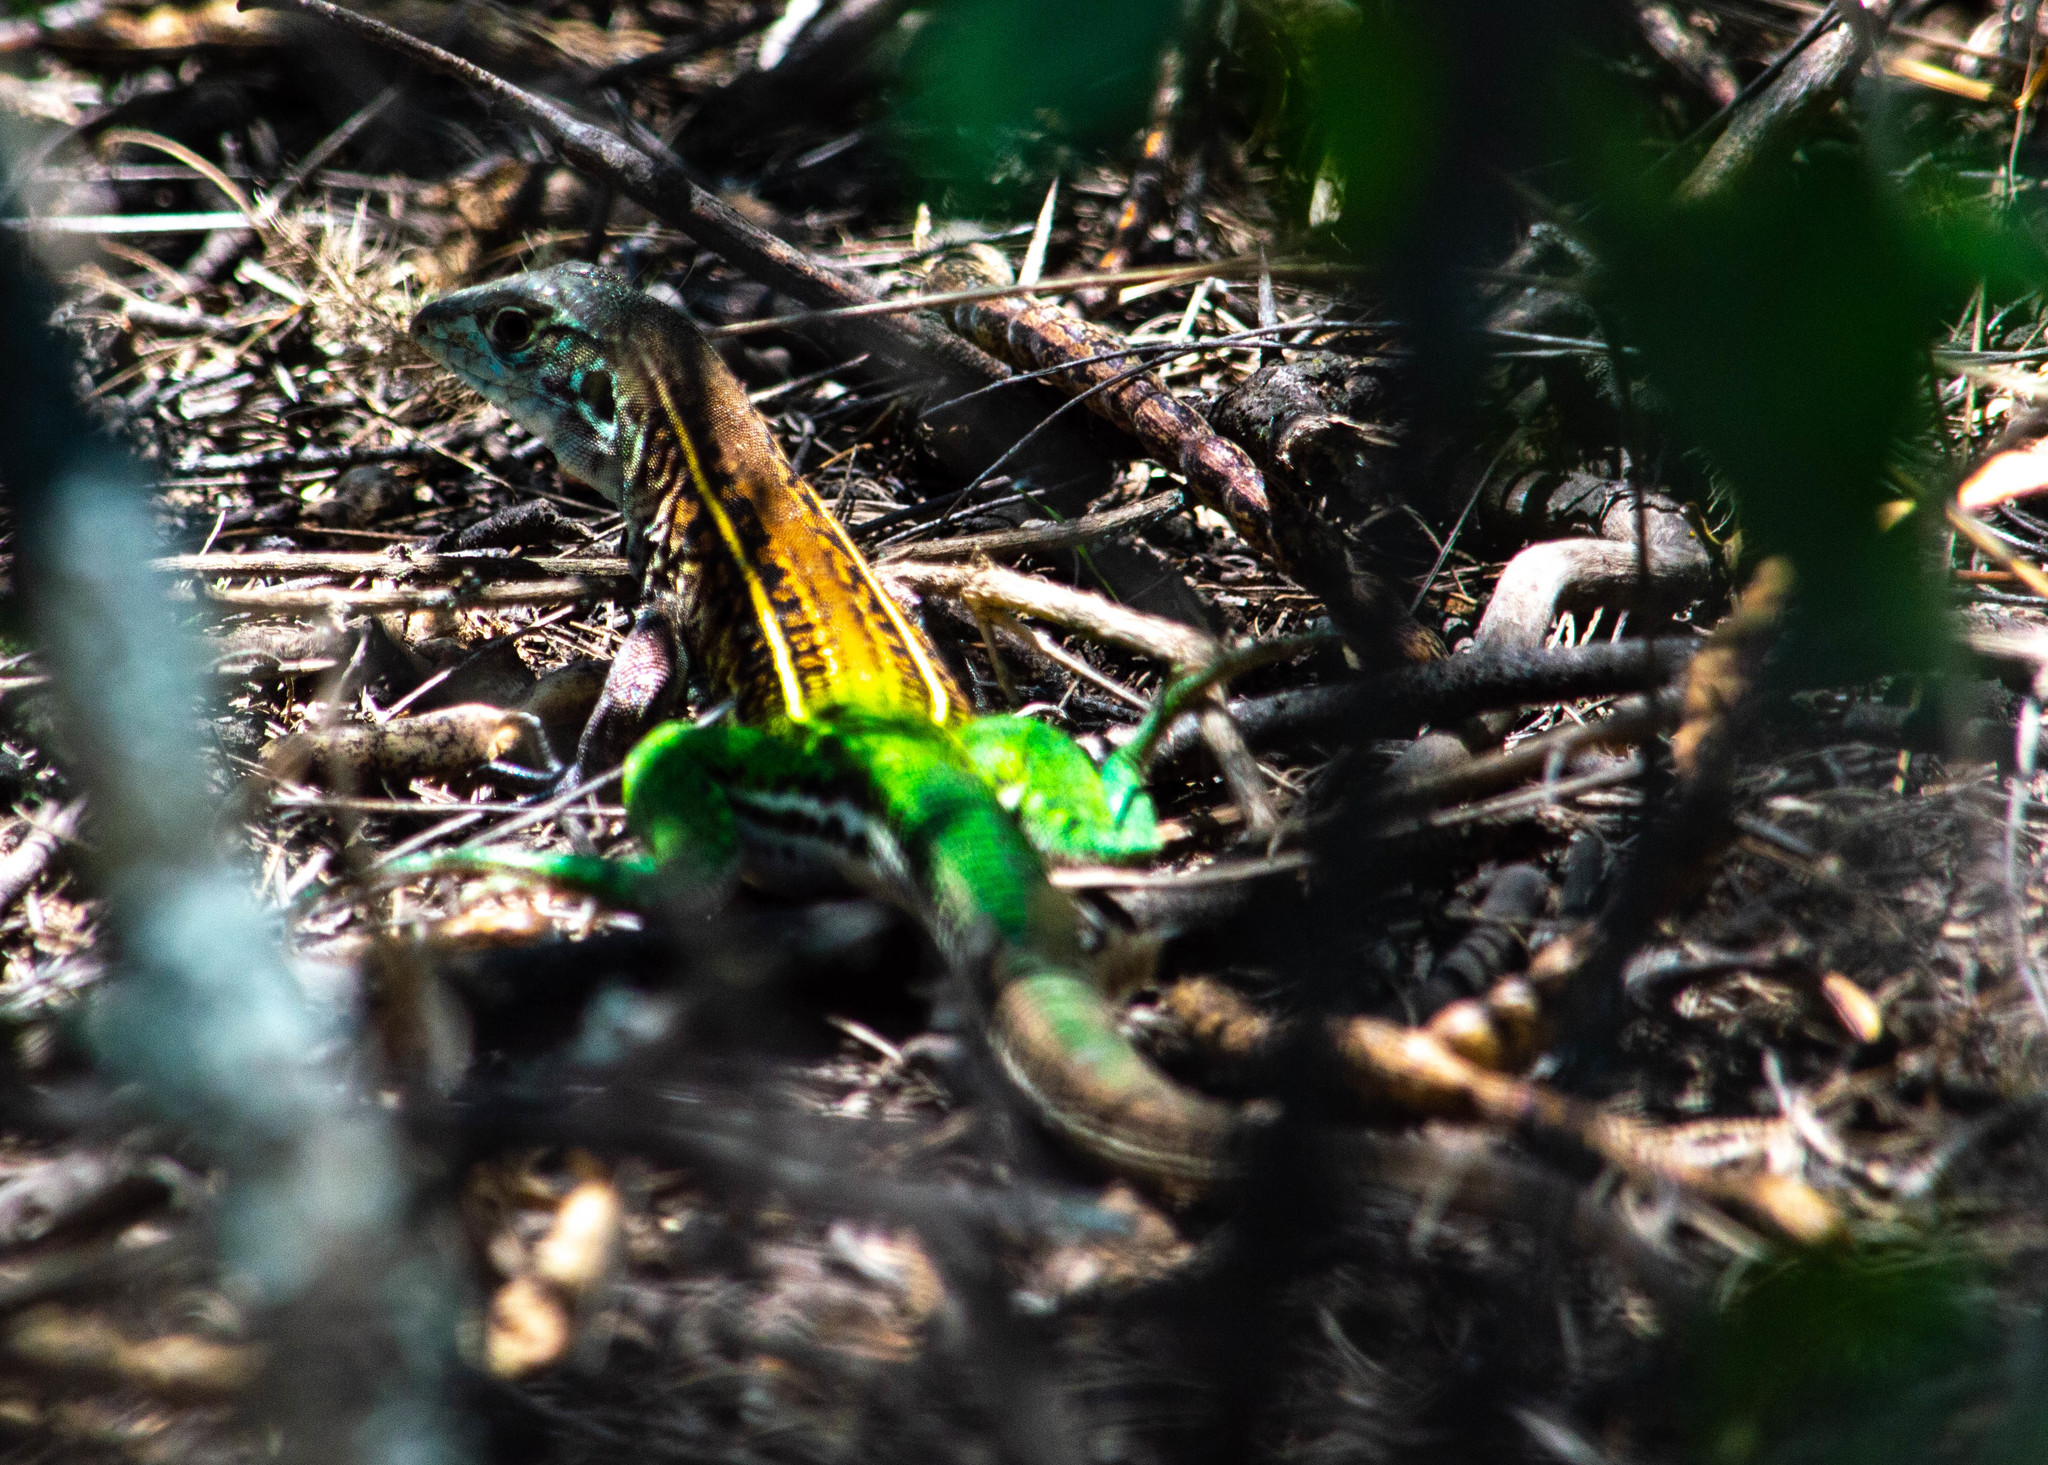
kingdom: Animalia
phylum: Chordata
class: Squamata
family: Teiidae
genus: Teius
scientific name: Teius teyou
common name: Four-toed tegu
